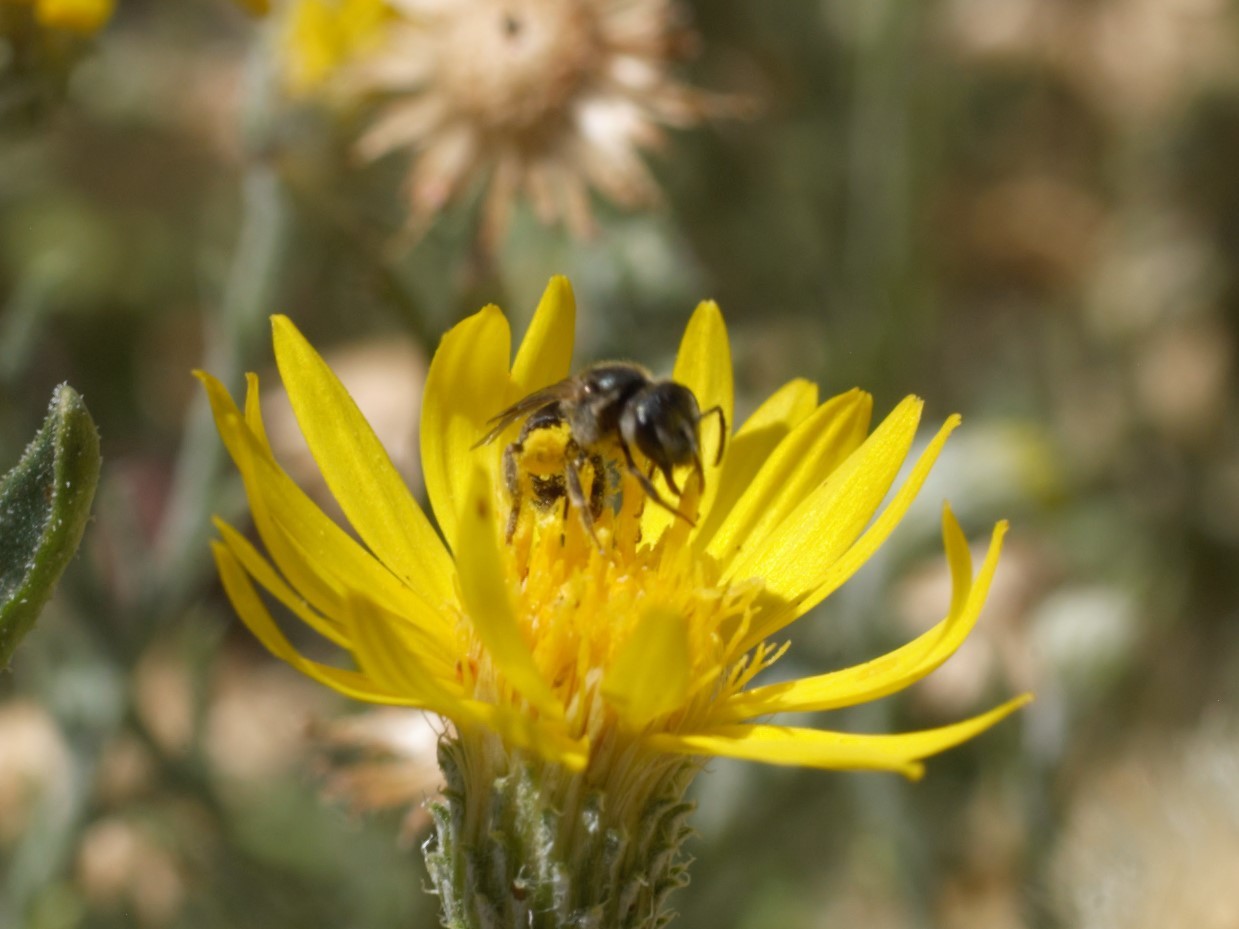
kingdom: Animalia
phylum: Arthropoda
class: Insecta
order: Hymenoptera
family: Halictidae
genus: Halictus
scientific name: Halictus tripartitus
